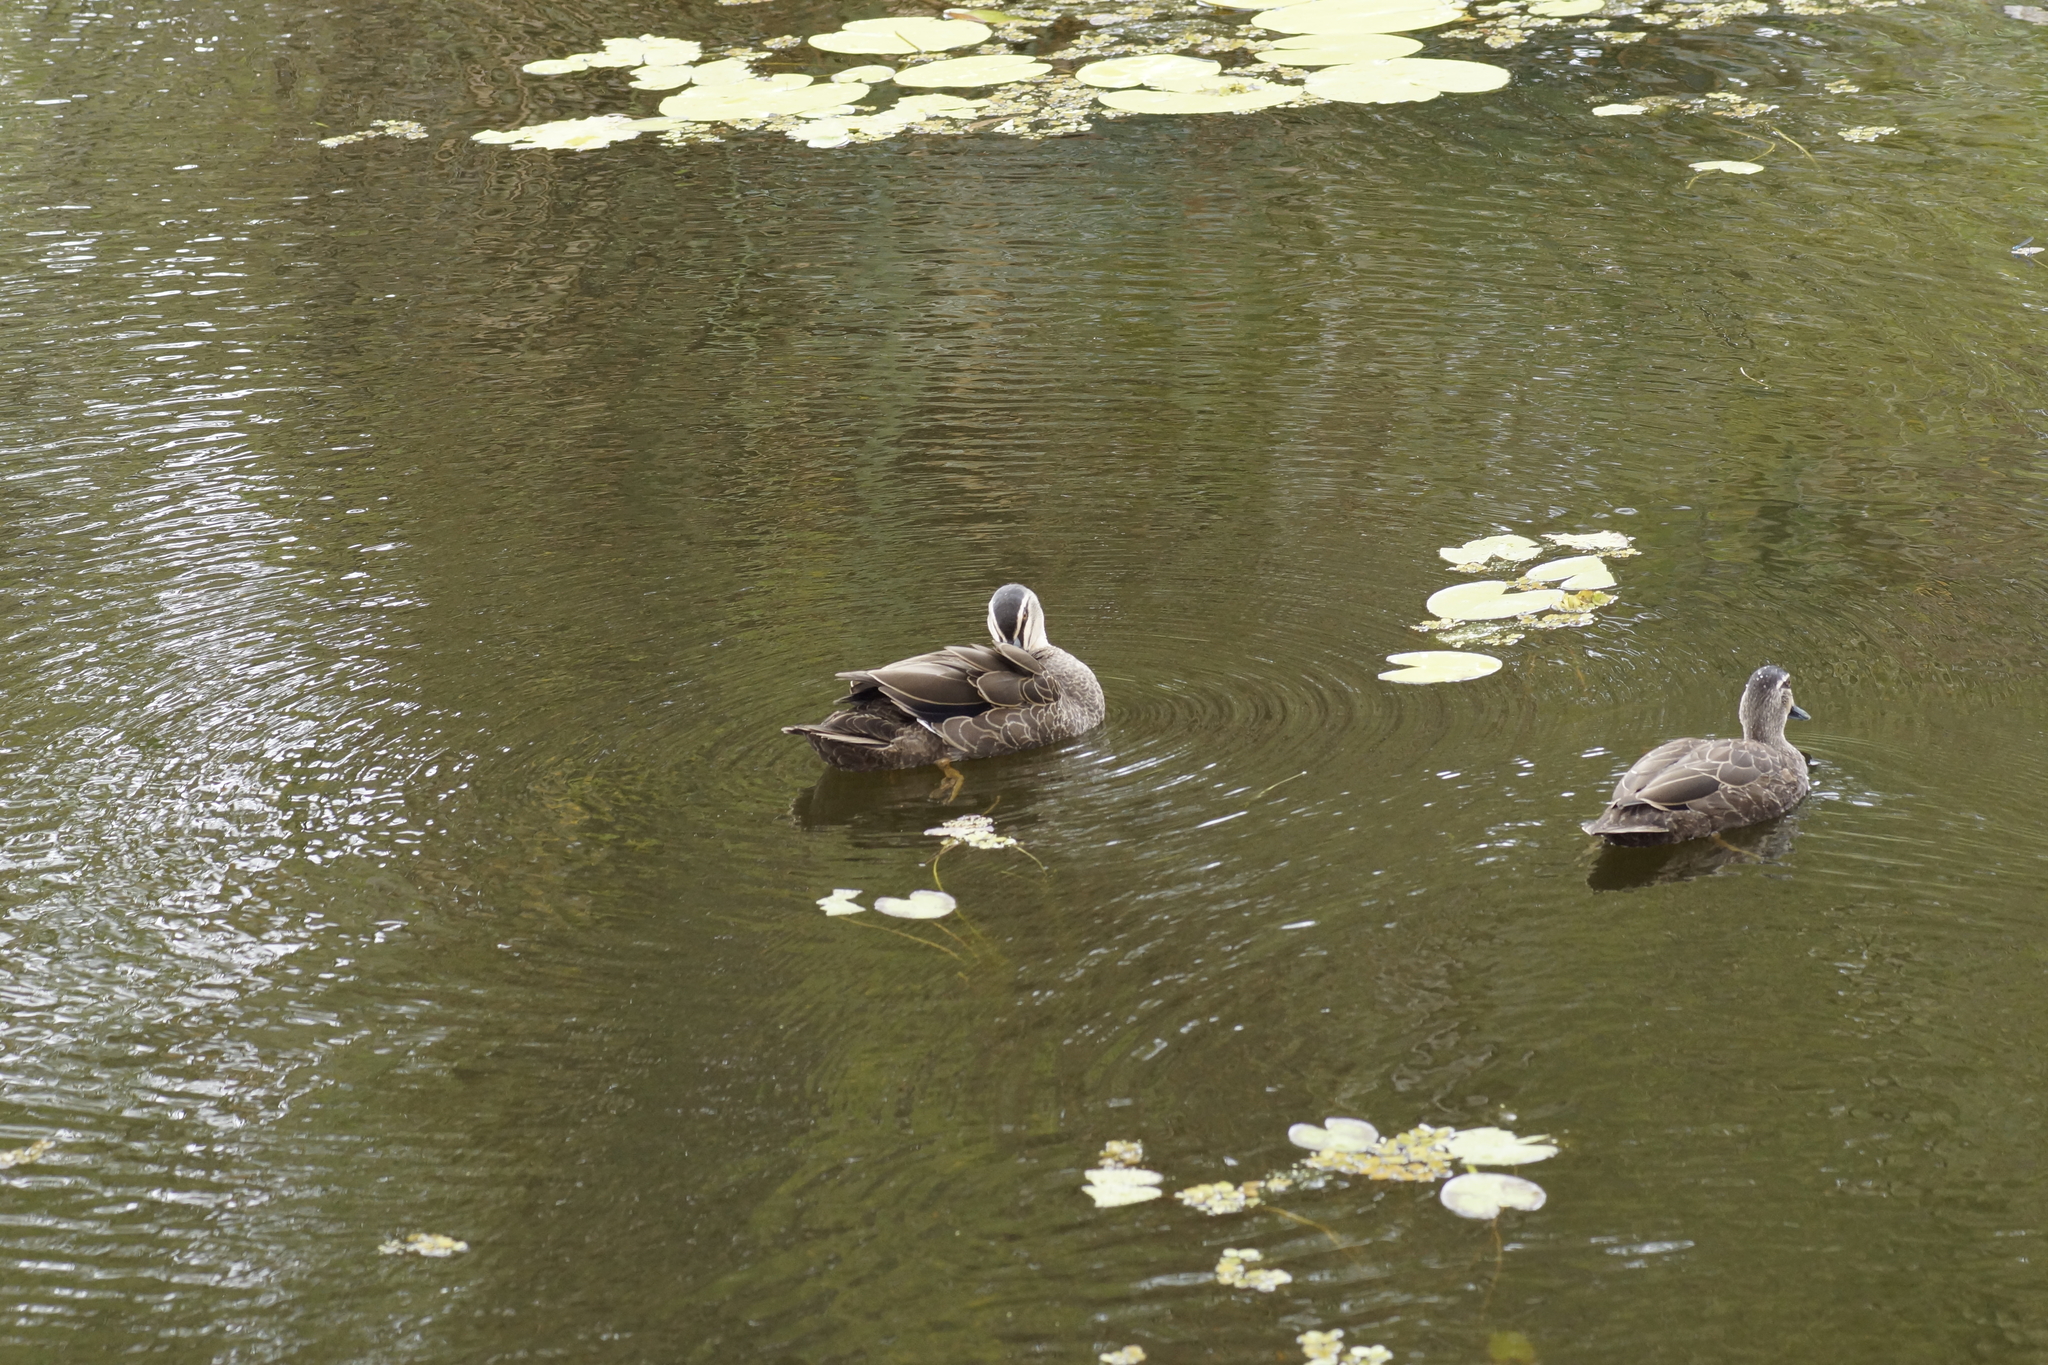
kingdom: Animalia
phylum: Chordata
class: Aves
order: Anseriformes
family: Anatidae
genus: Anas
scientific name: Anas superciliosa
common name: Pacific black duck
